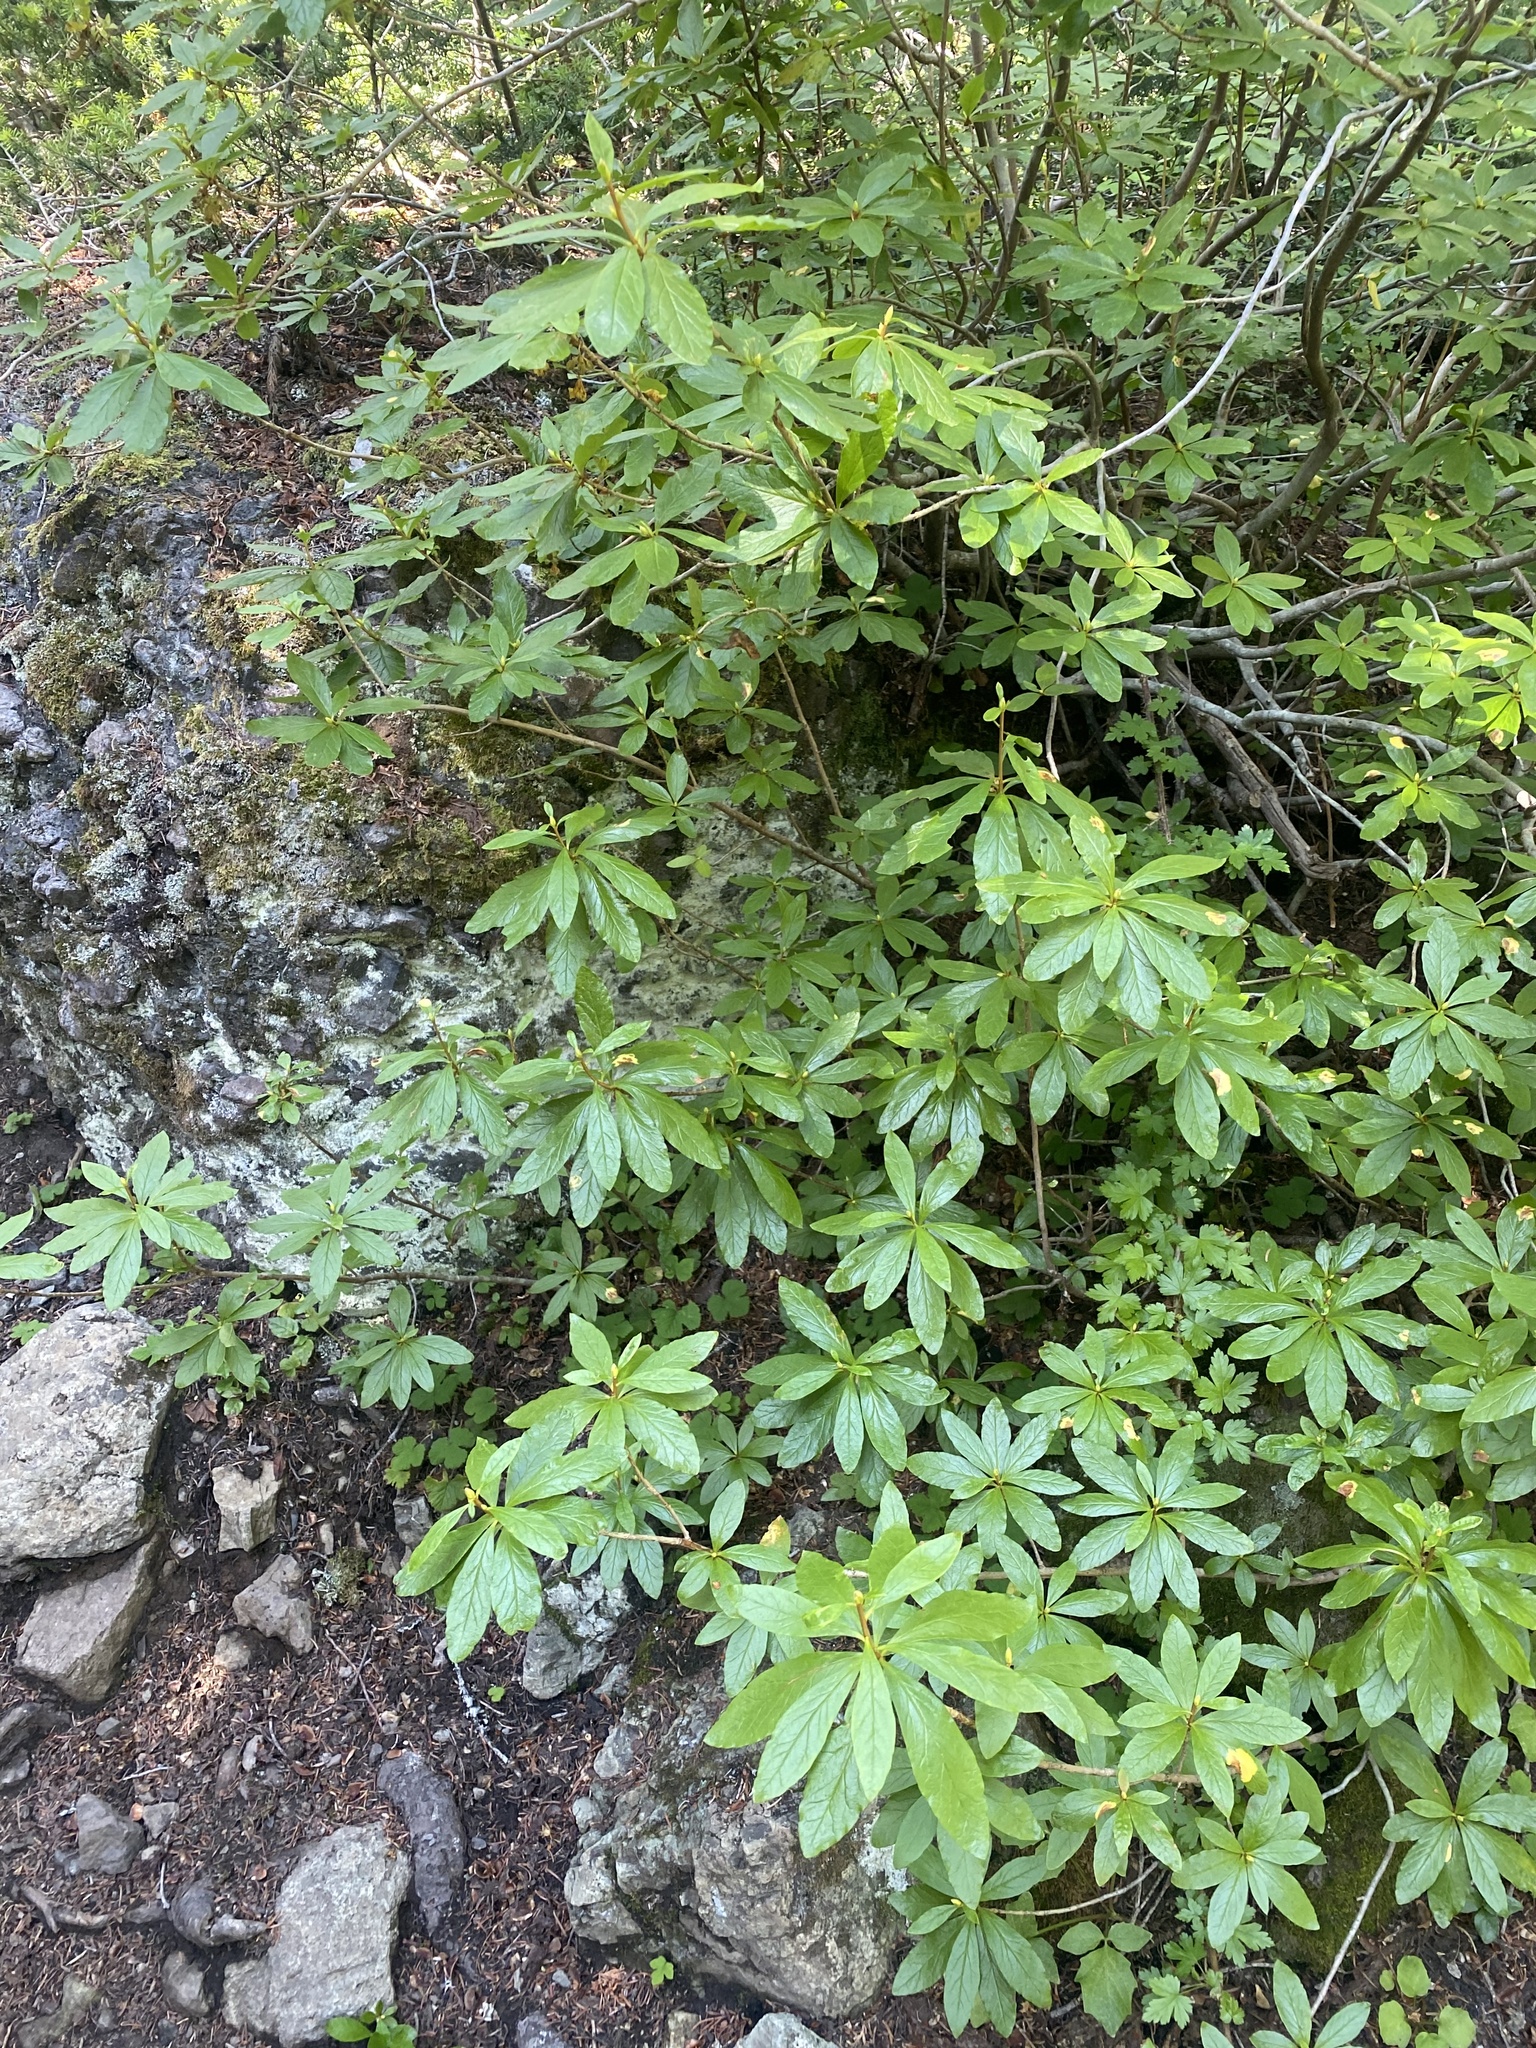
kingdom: Plantae
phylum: Tracheophyta
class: Magnoliopsida
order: Ericales
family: Ericaceae
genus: Rhododendron
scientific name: Rhododendron albiflorum
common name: White rhododendron
